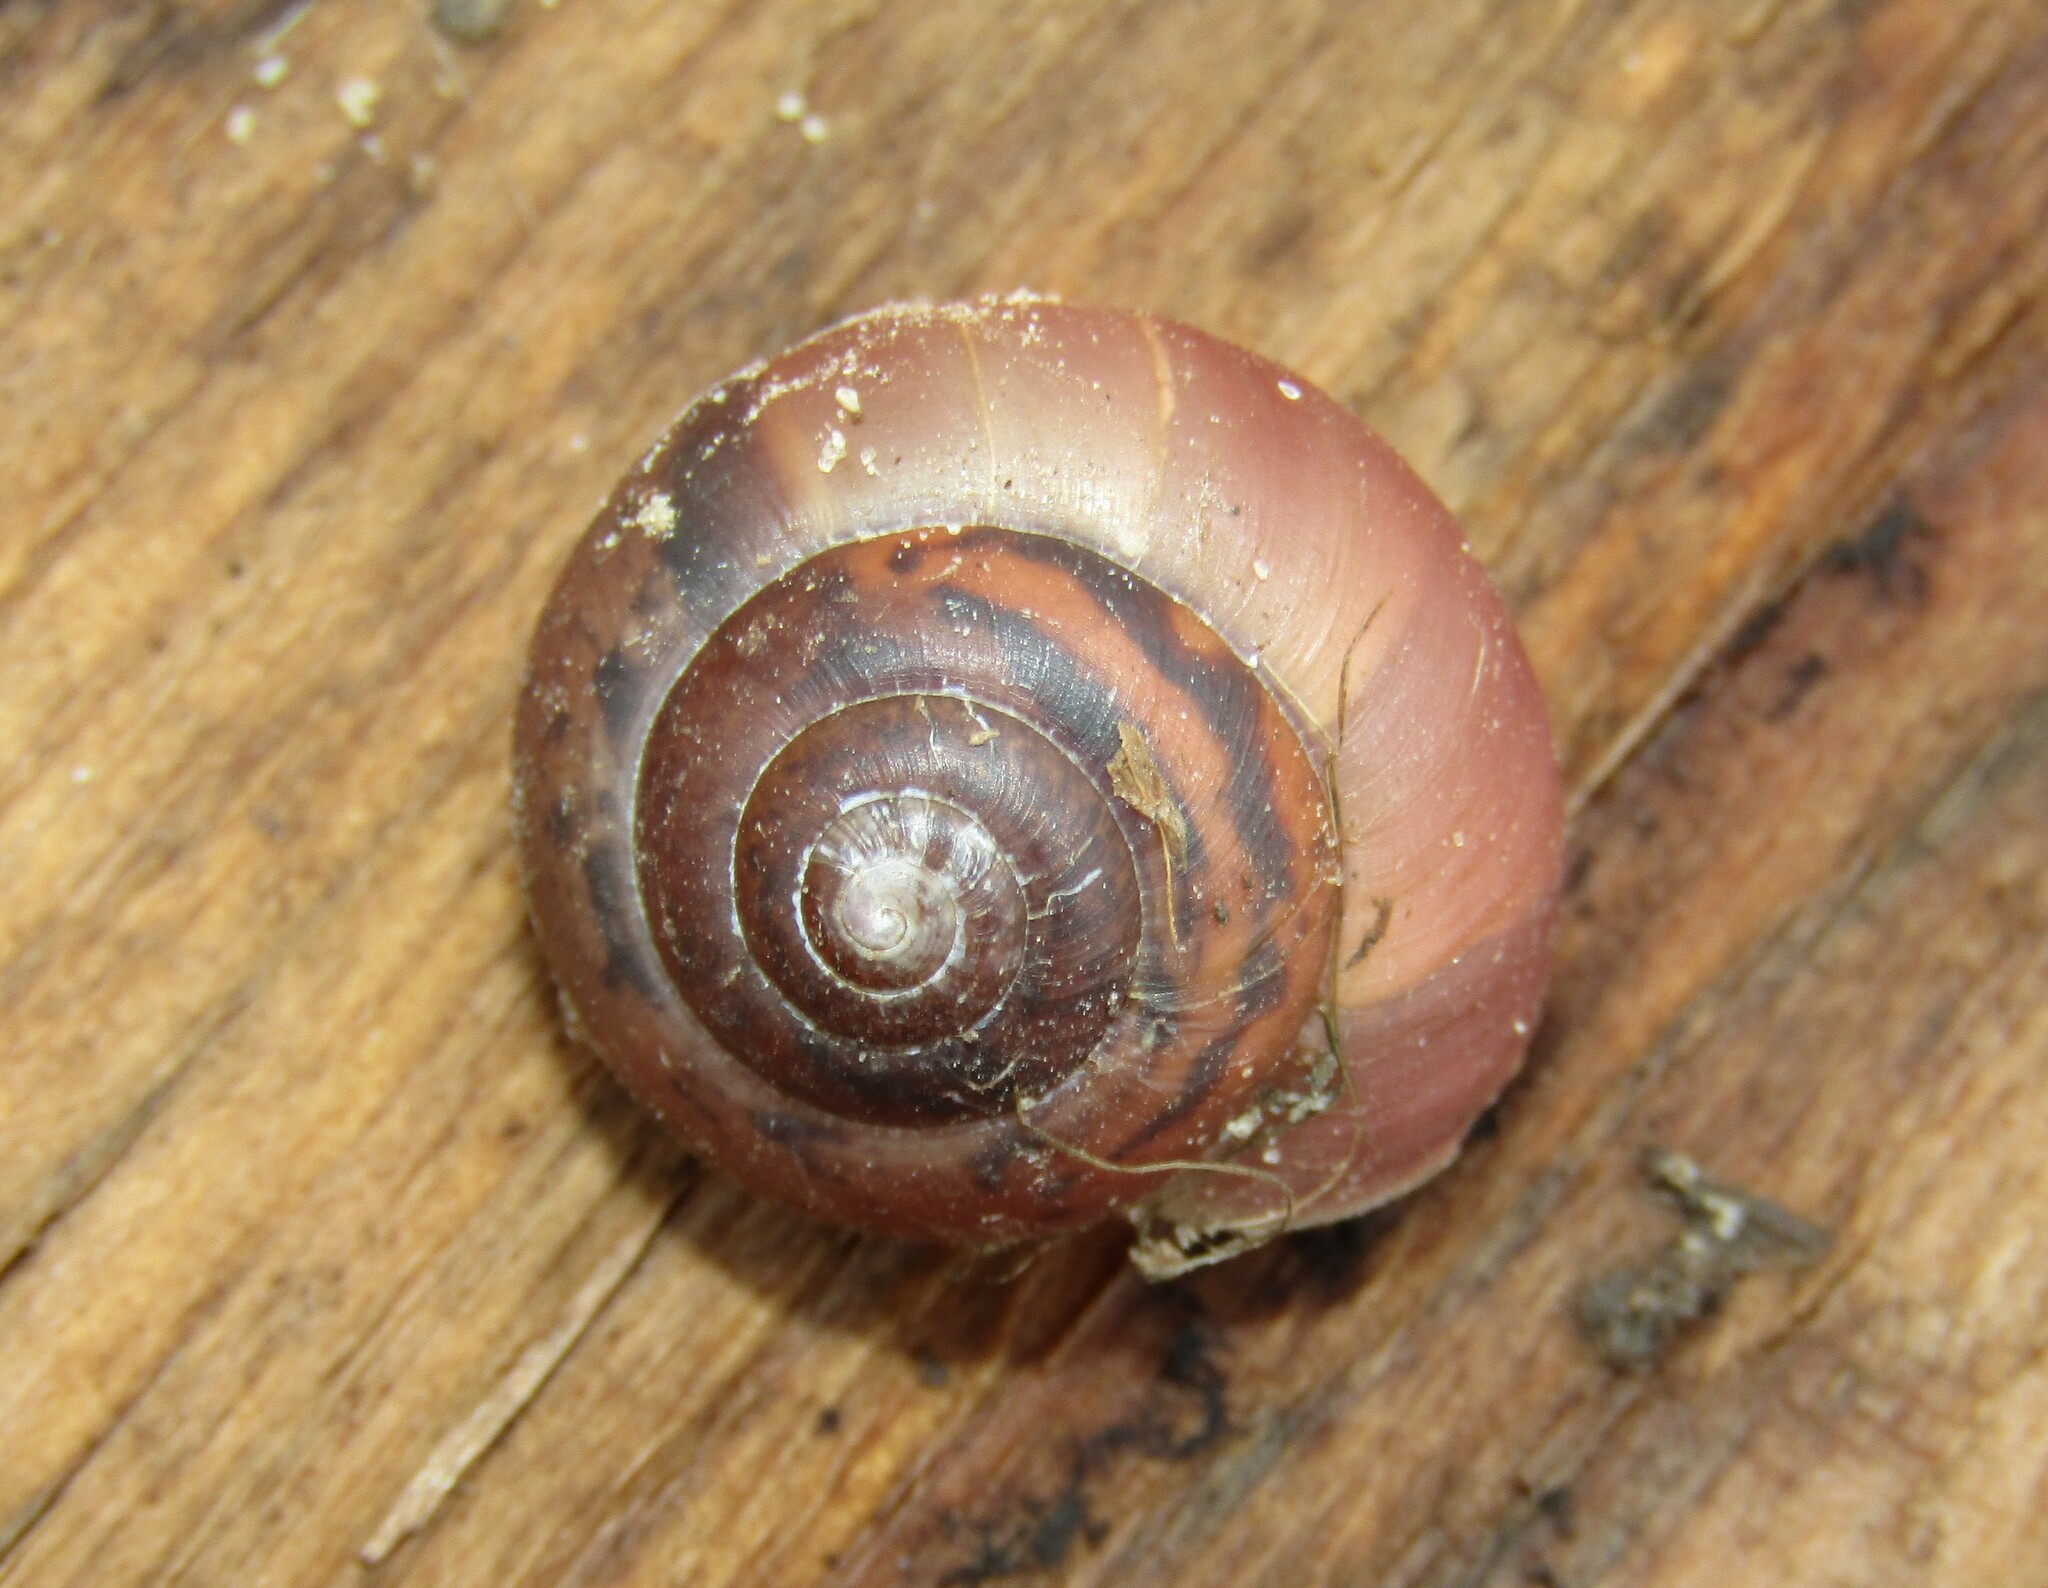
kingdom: Animalia
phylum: Mollusca
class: Gastropoda
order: Stylommatophora
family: Camaenidae
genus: Fruticicola
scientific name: Fruticicola fruticum
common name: Bush snail
